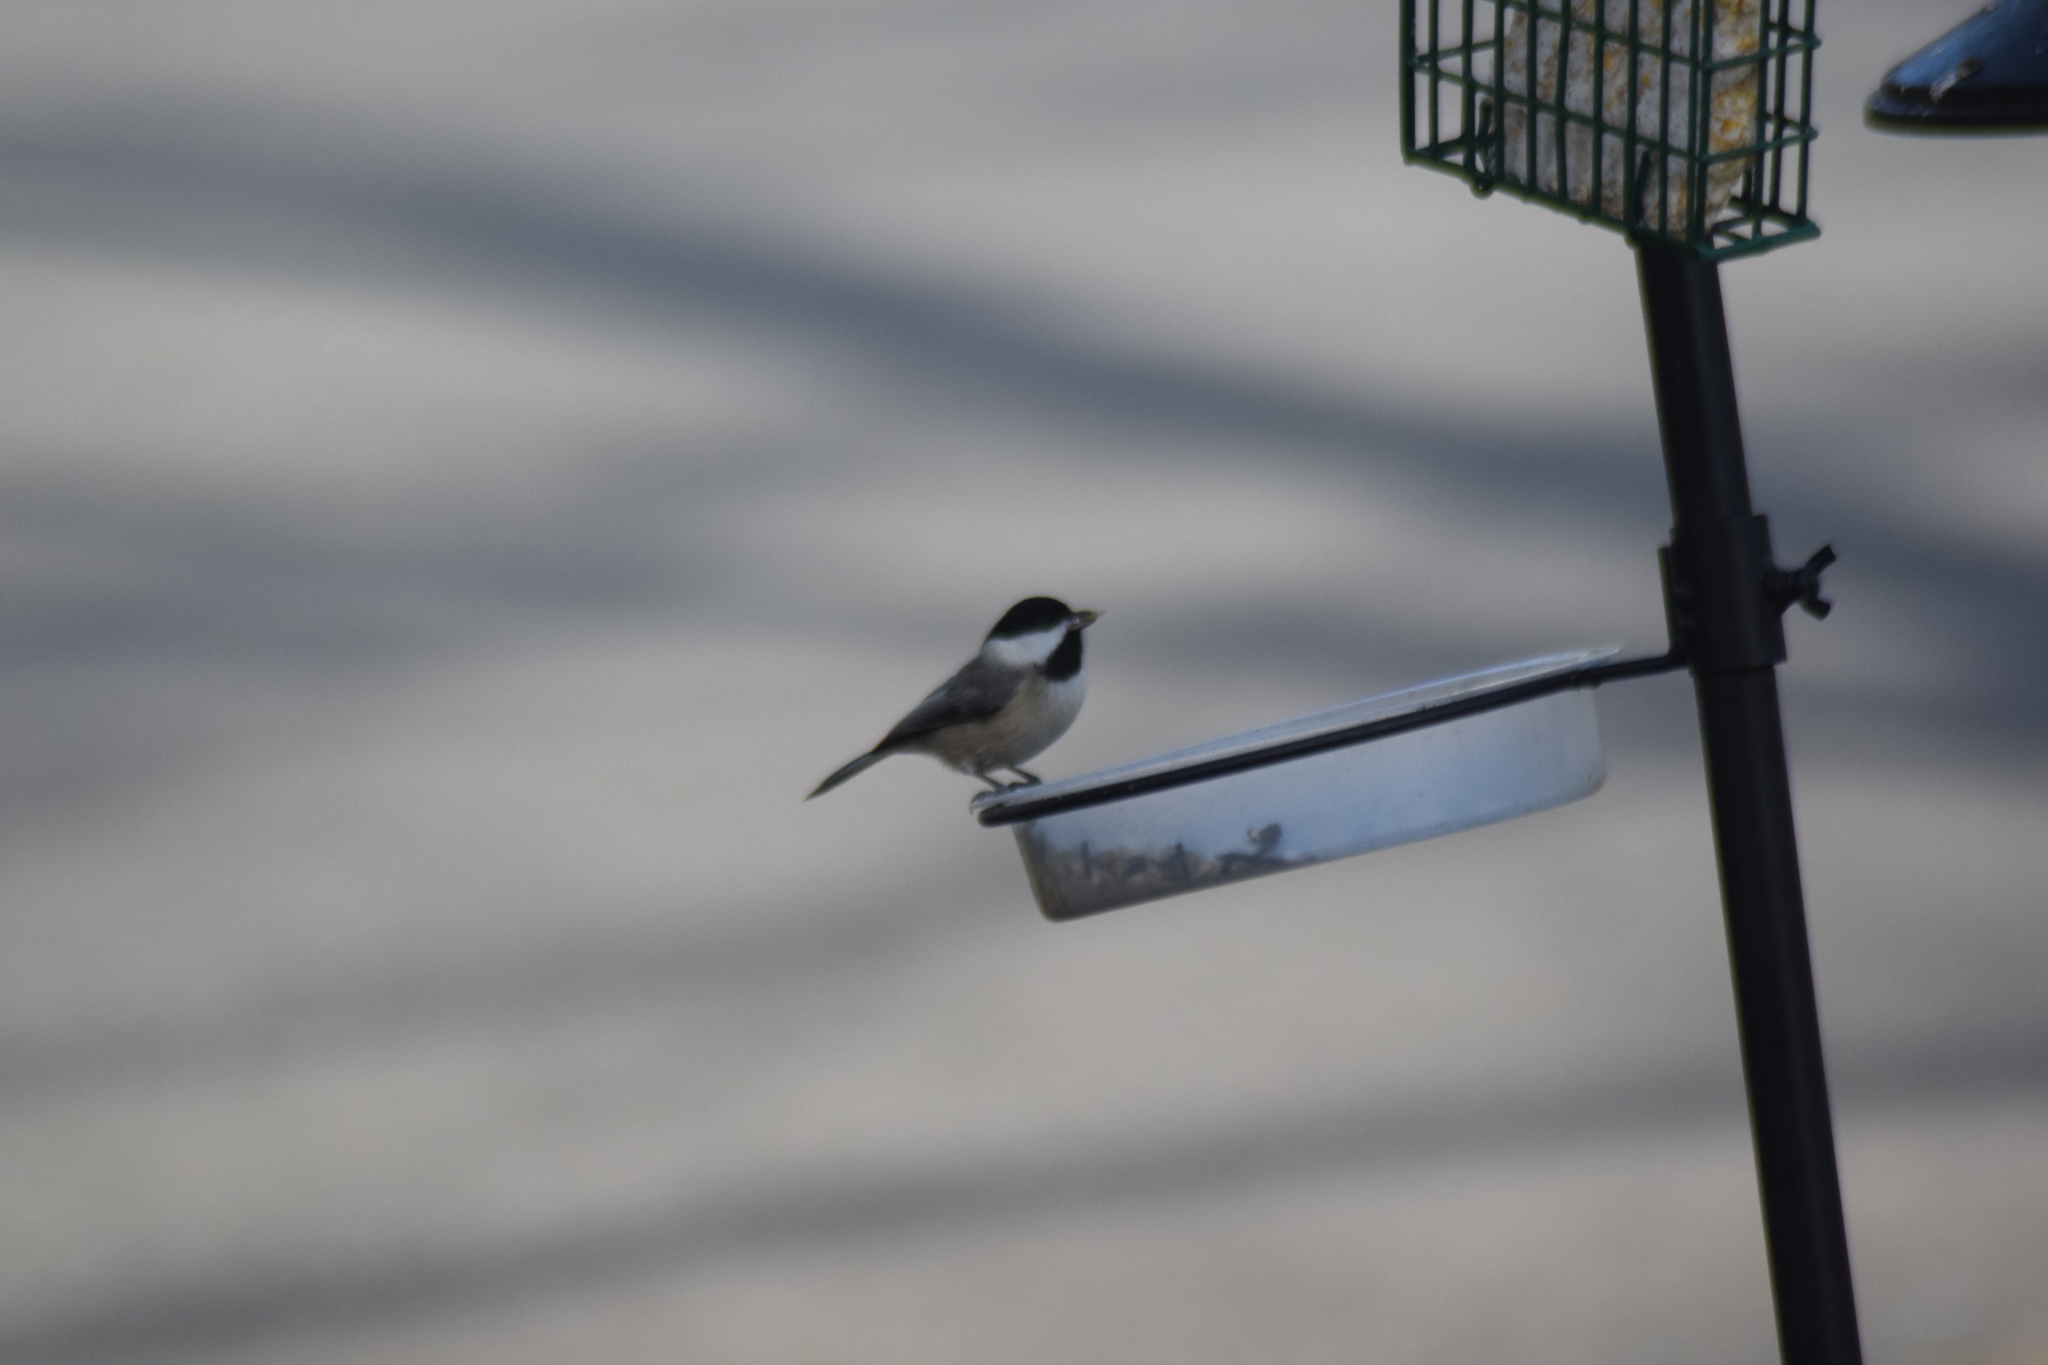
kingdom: Animalia
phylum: Chordata
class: Aves
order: Passeriformes
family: Paridae
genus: Poecile
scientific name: Poecile carolinensis
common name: Carolina chickadee
